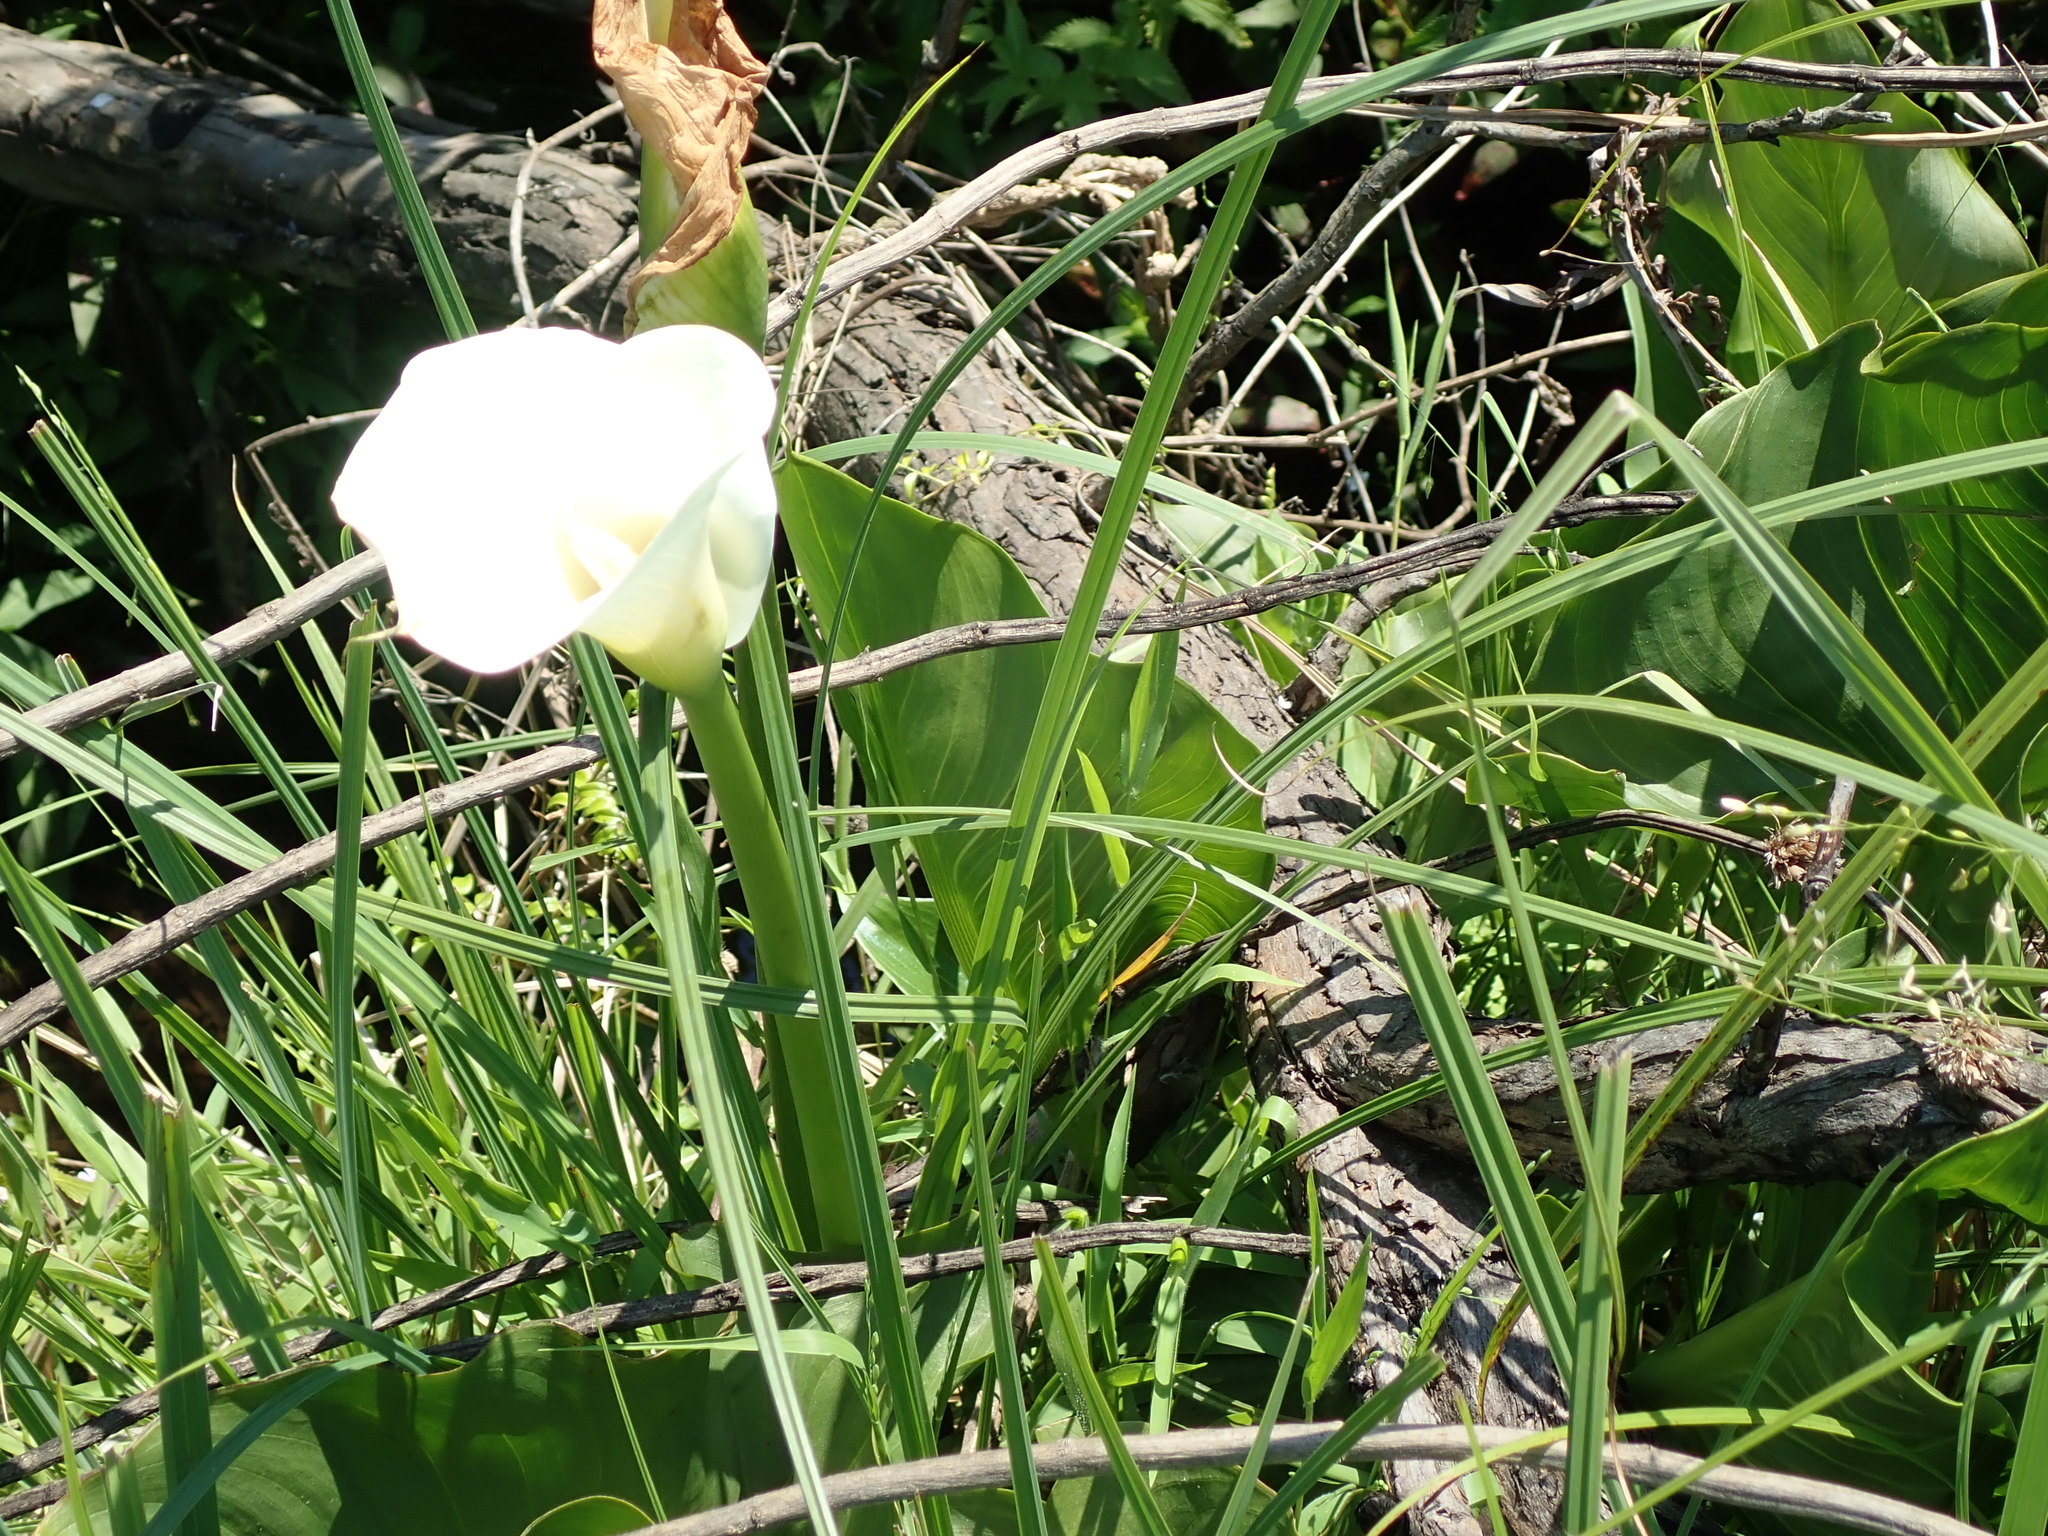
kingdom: Plantae
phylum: Tracheophyta
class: Liliopsida
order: Alismatales
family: Araceae
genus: Zantedeschia
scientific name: Zantedeschia aethiopica
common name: Altar-lily
